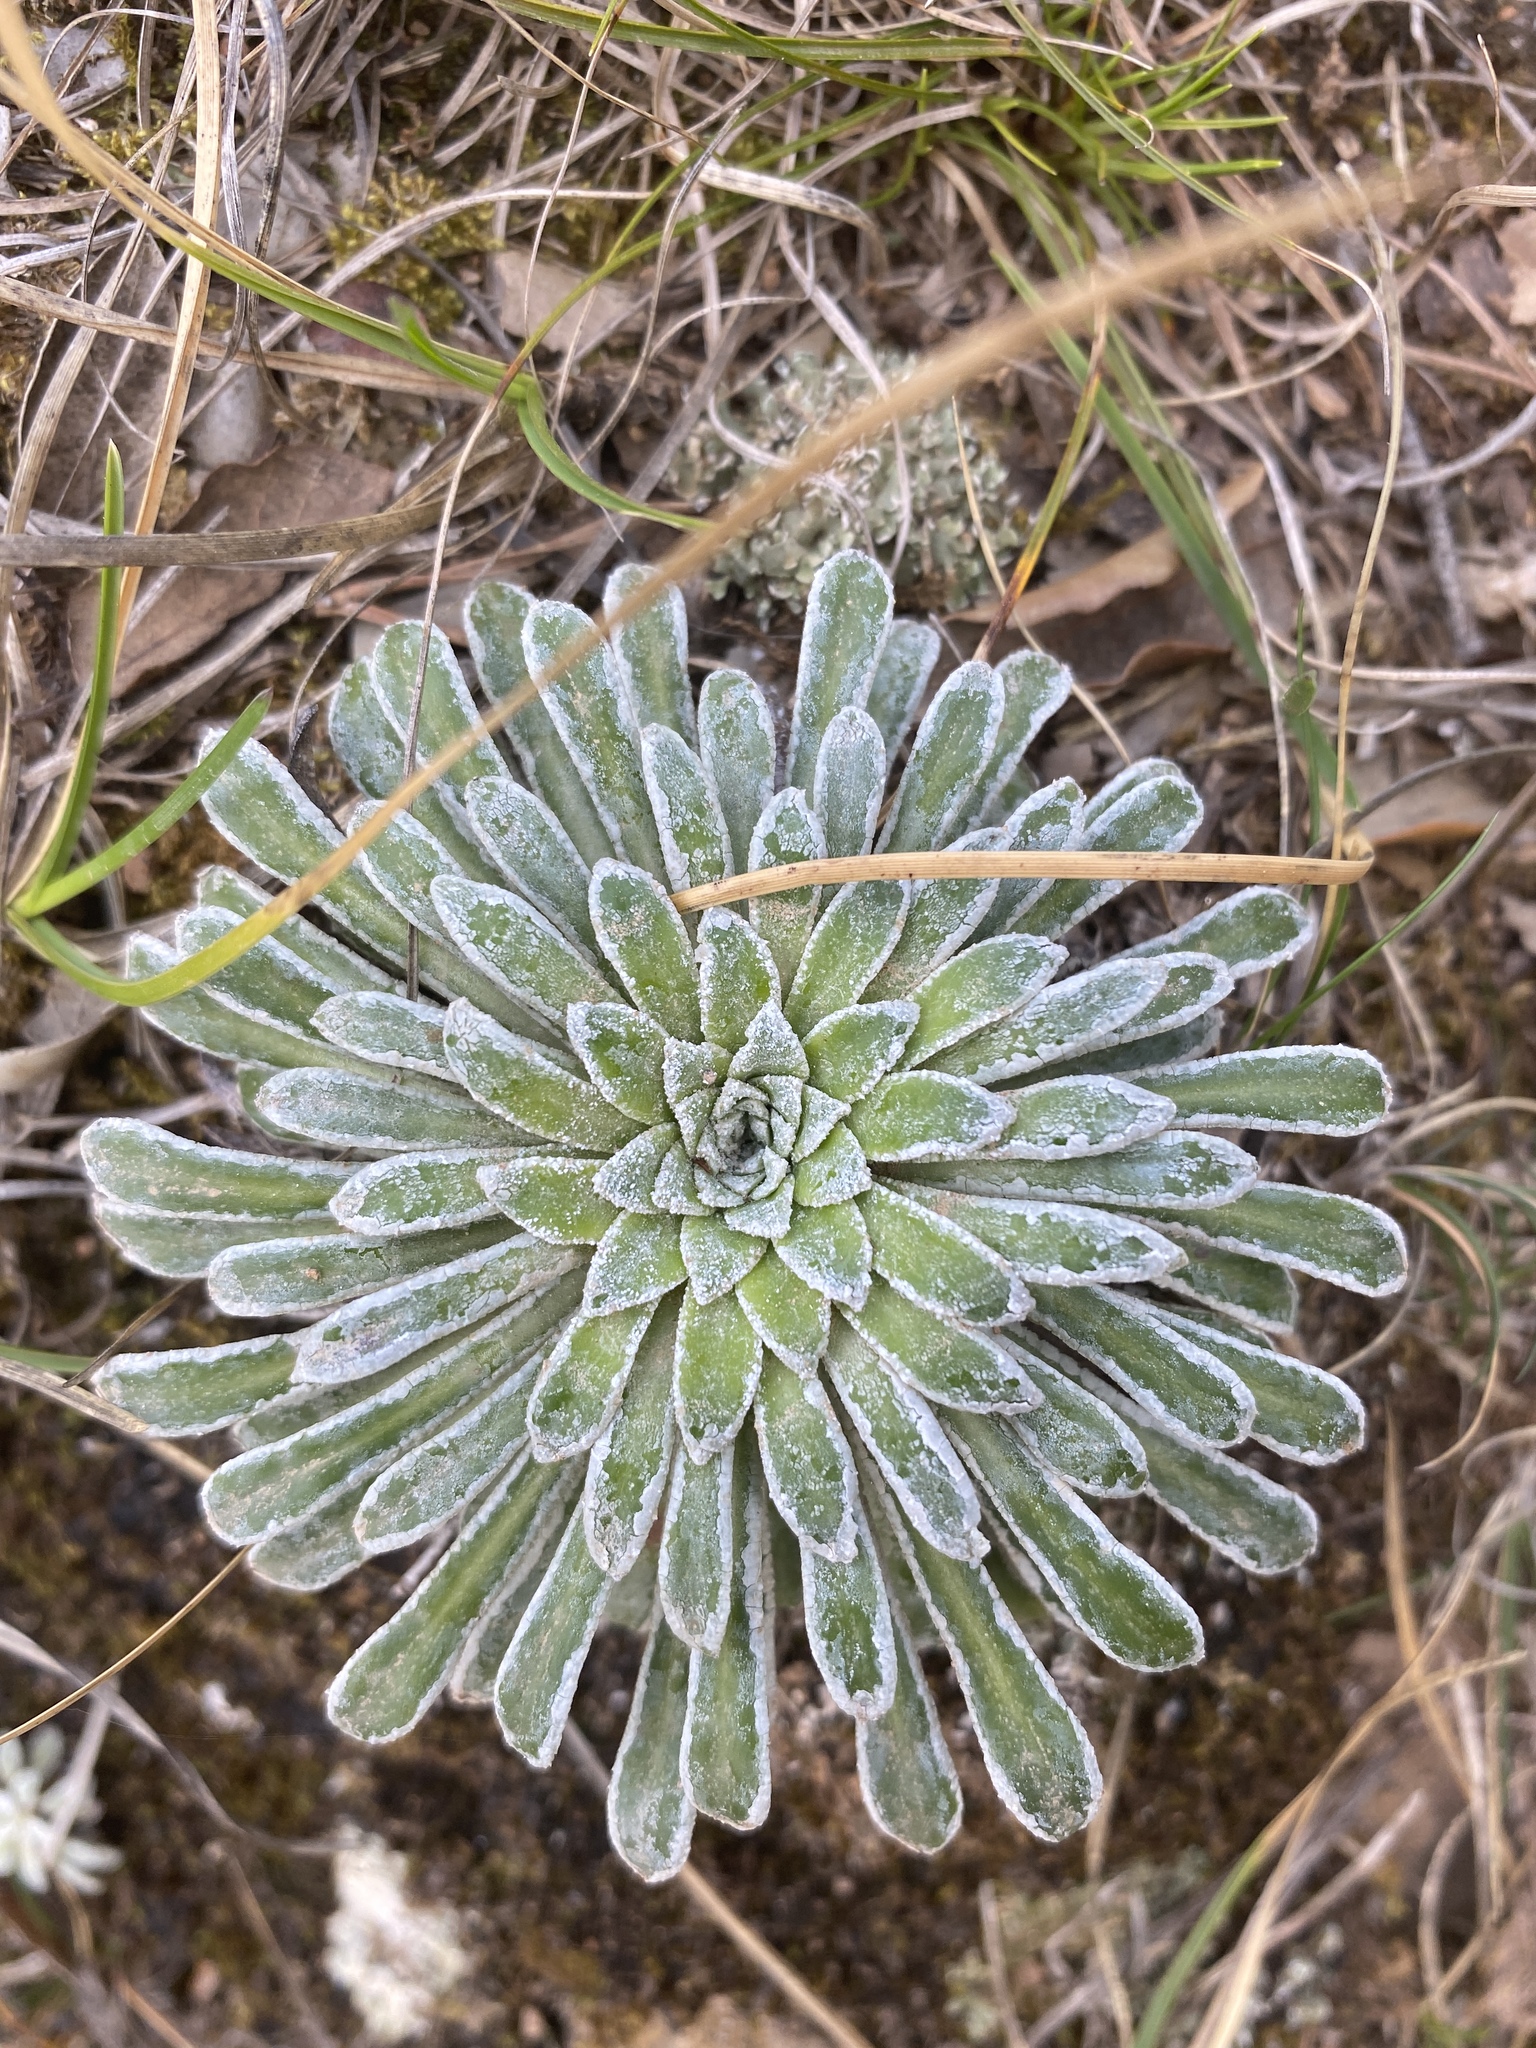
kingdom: Plantae
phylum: Tracheophyta
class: Magnoliopsida
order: Saxifragales
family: Saxifragaceae
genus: Saxifraga
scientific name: Saxifraga longifolia
